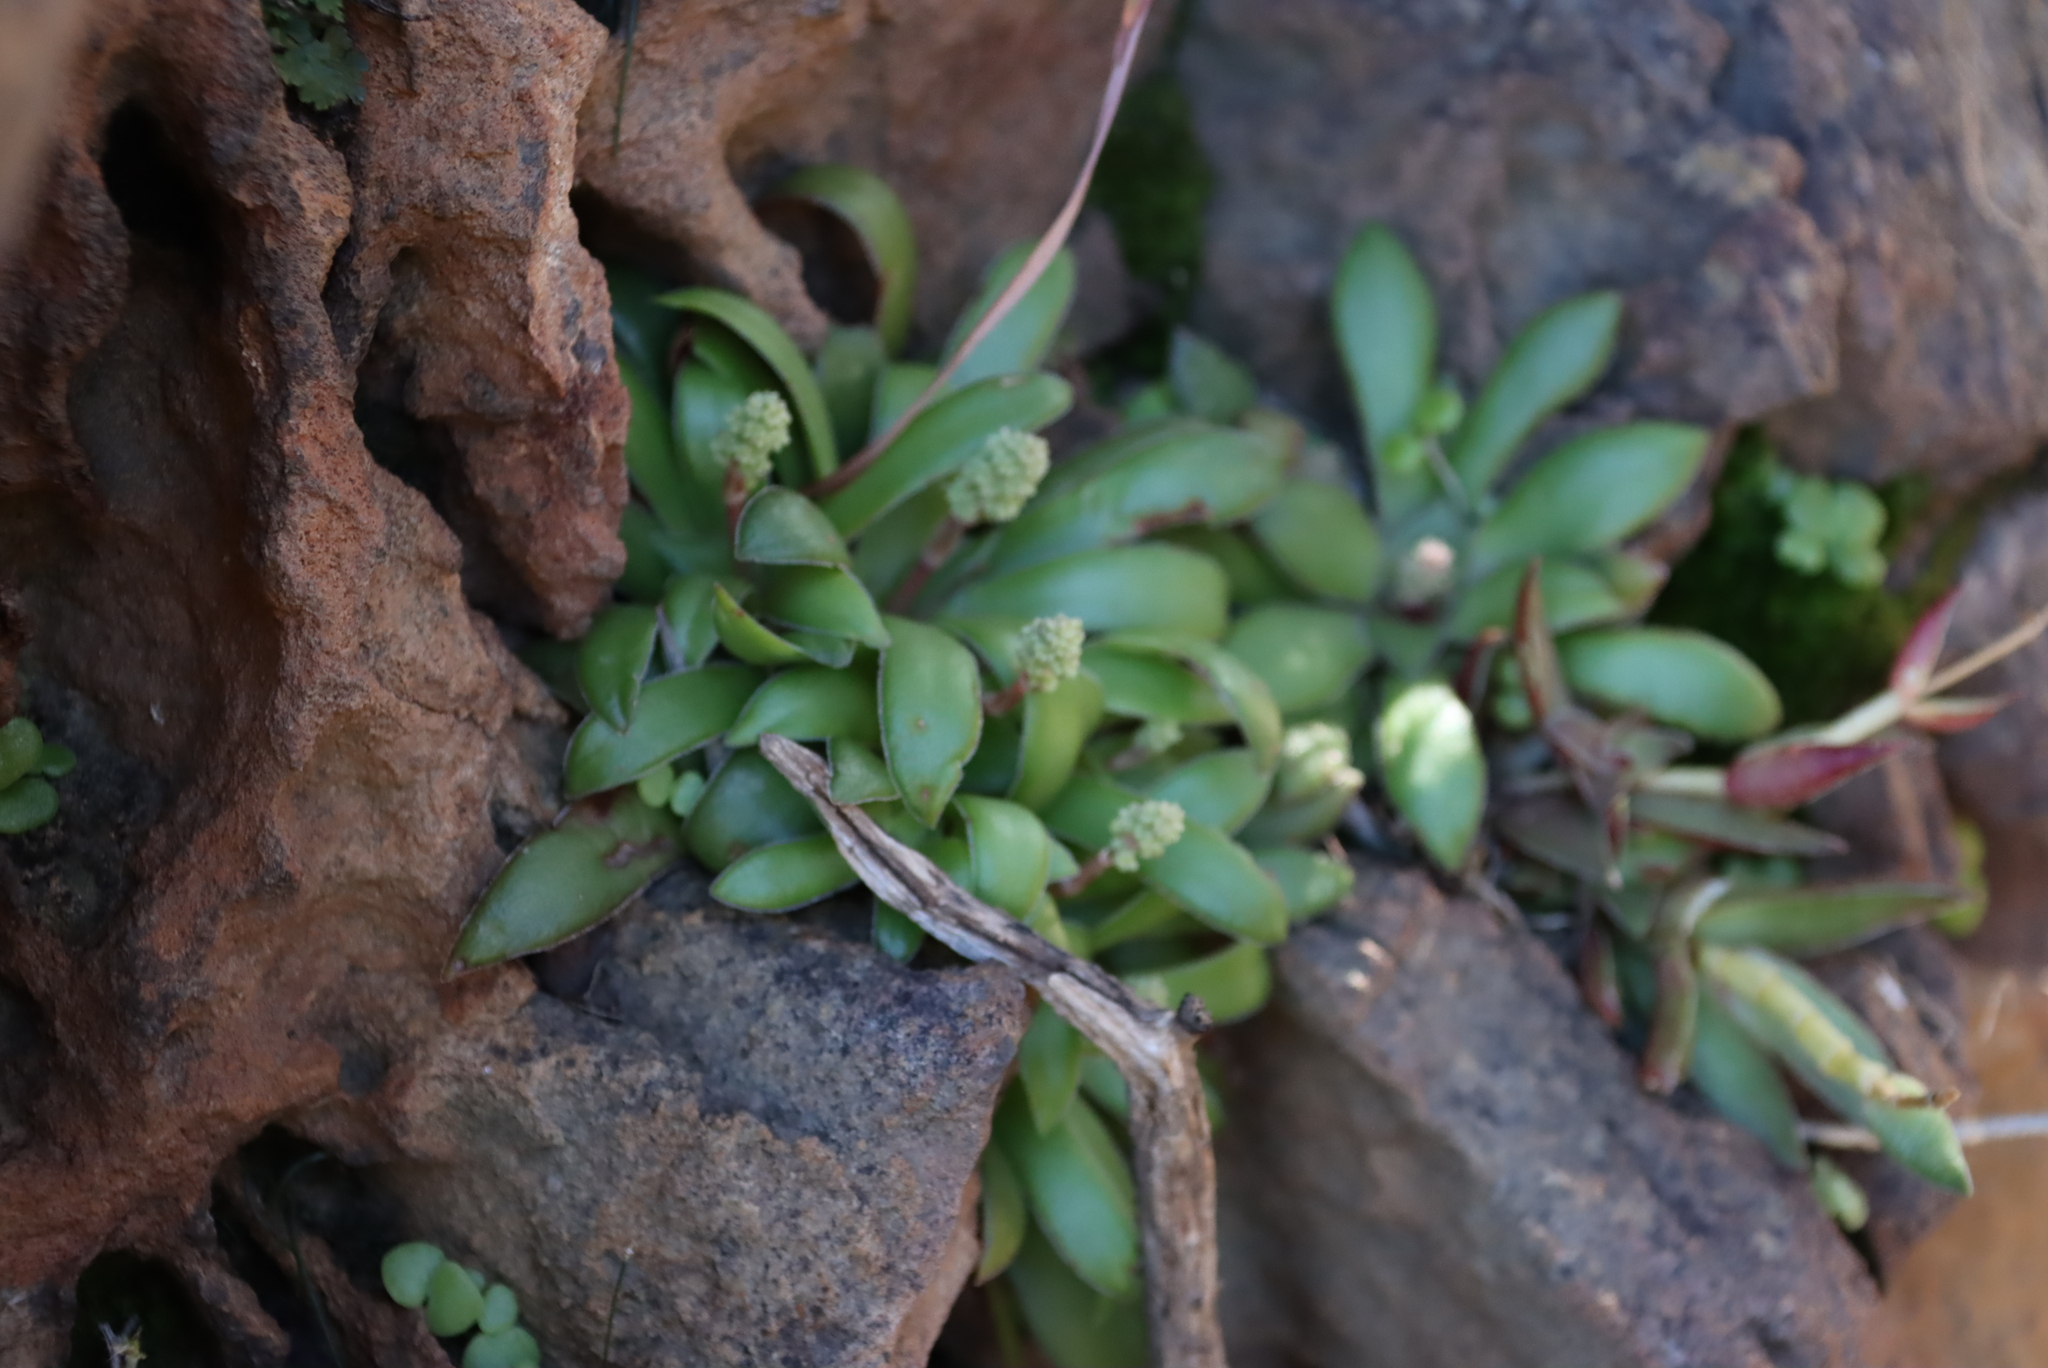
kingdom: Plantae
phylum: Tracheophyta
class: Magnoliopsida
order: Saxifragales
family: Crassulaceae
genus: Crassula
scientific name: Crassula orbicularis
